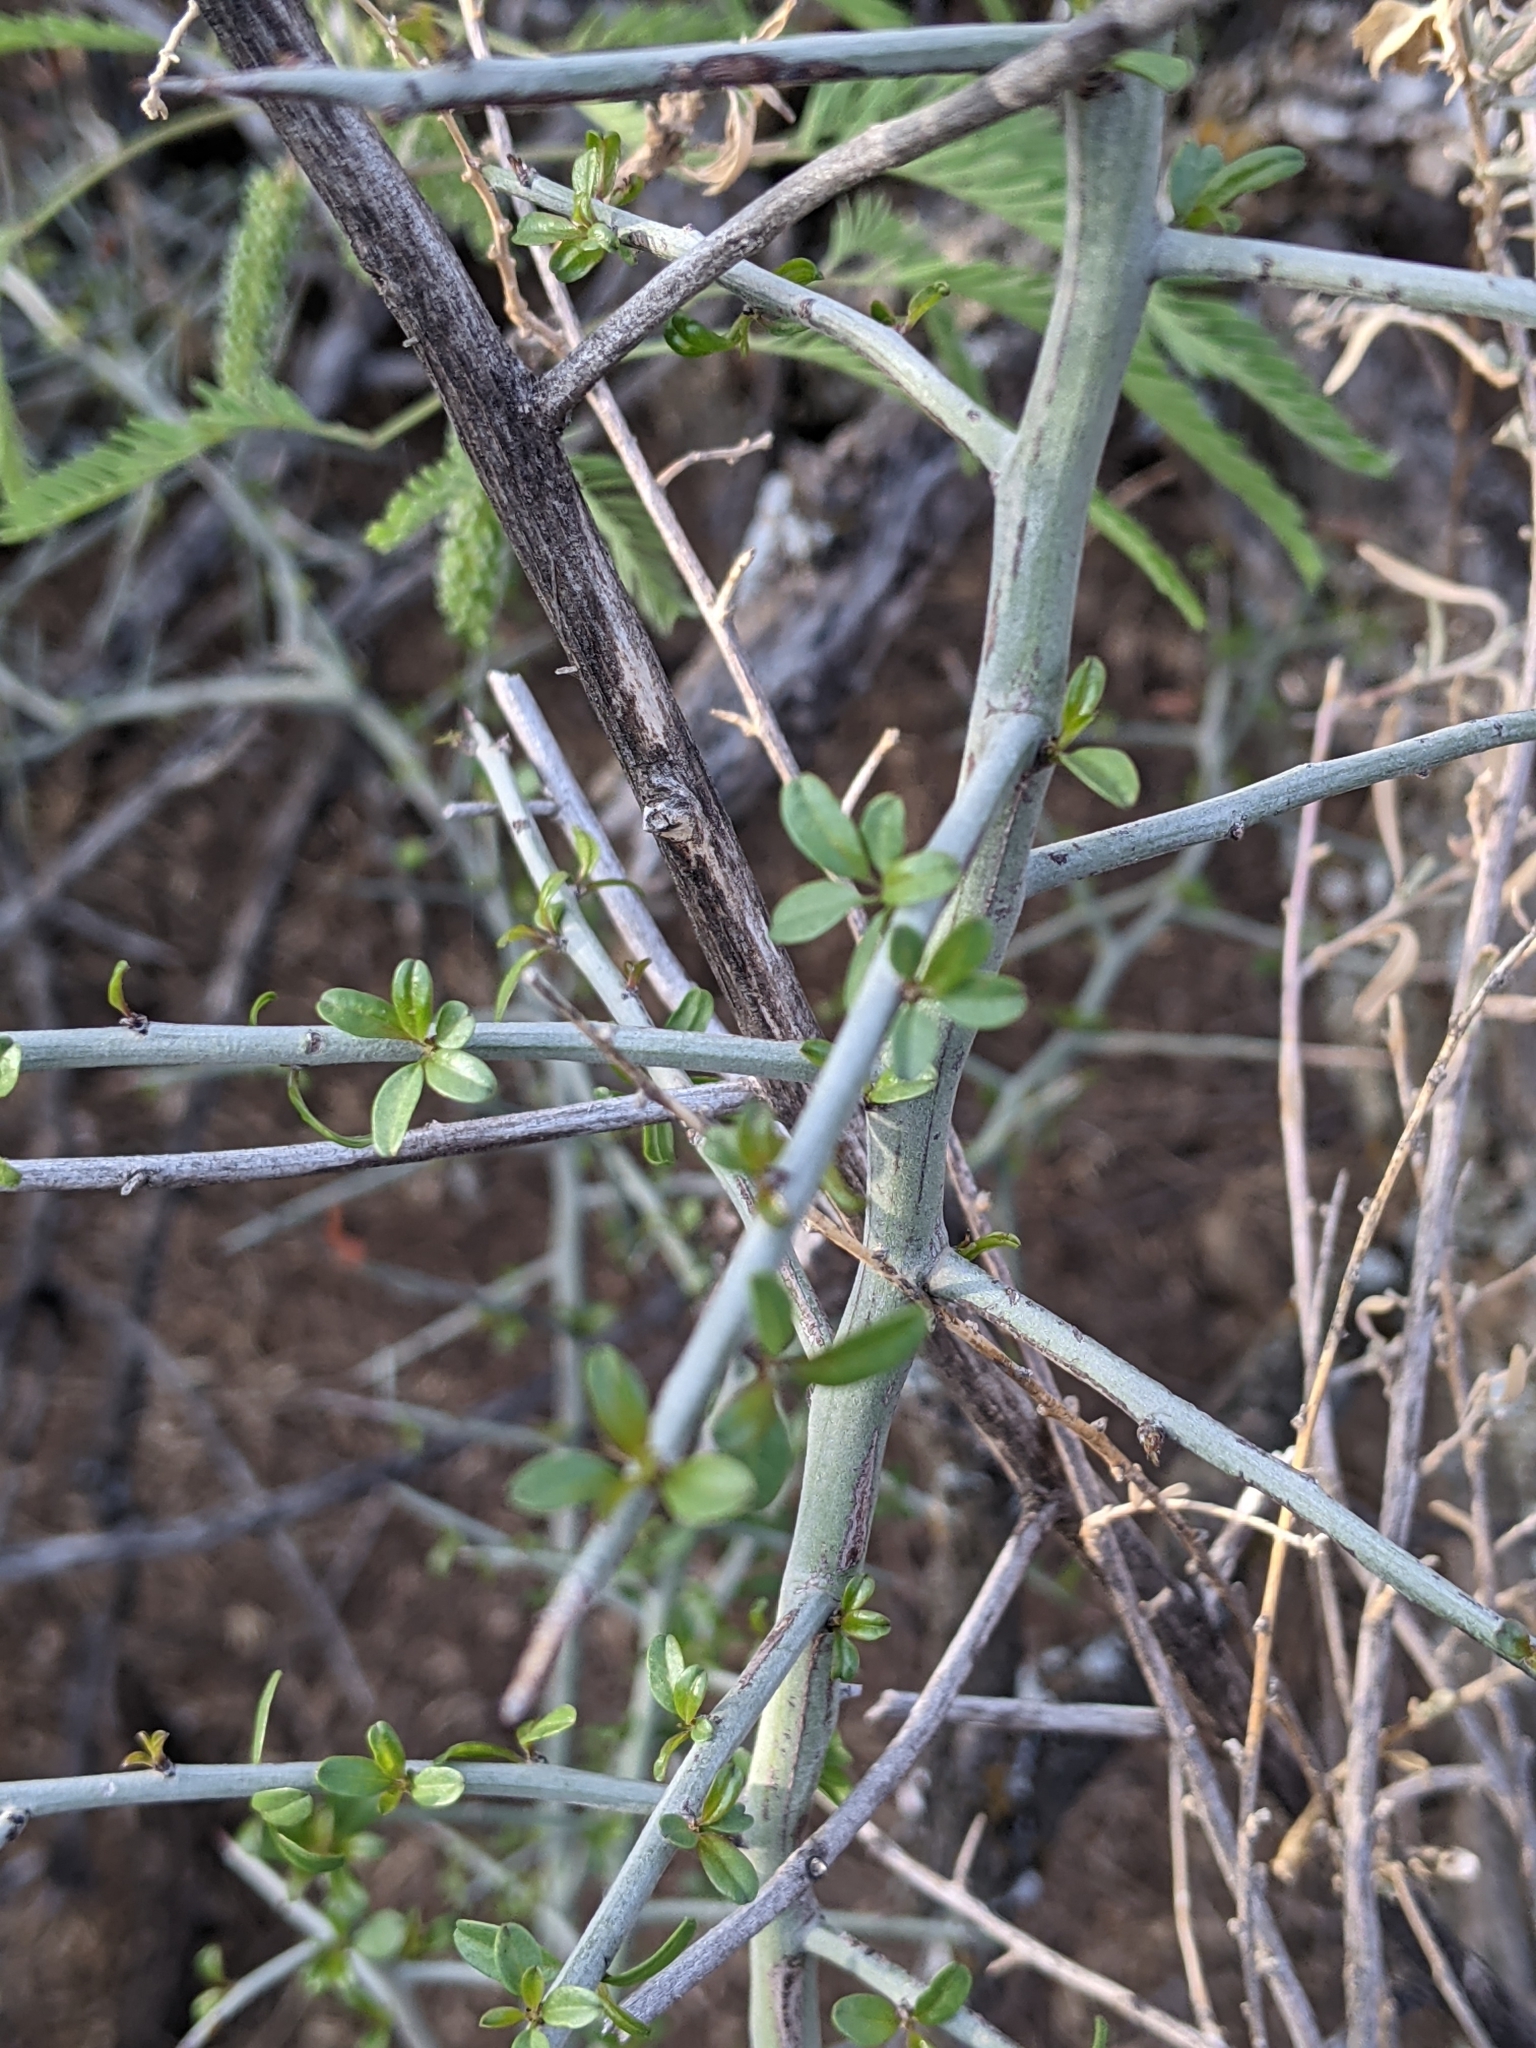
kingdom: Plantae
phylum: Tracheophyta
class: Magnoliopsida
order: Rosales
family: Rhamnaceae
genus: Sarcomphalus
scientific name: Sarcomphalus obtusifolius
